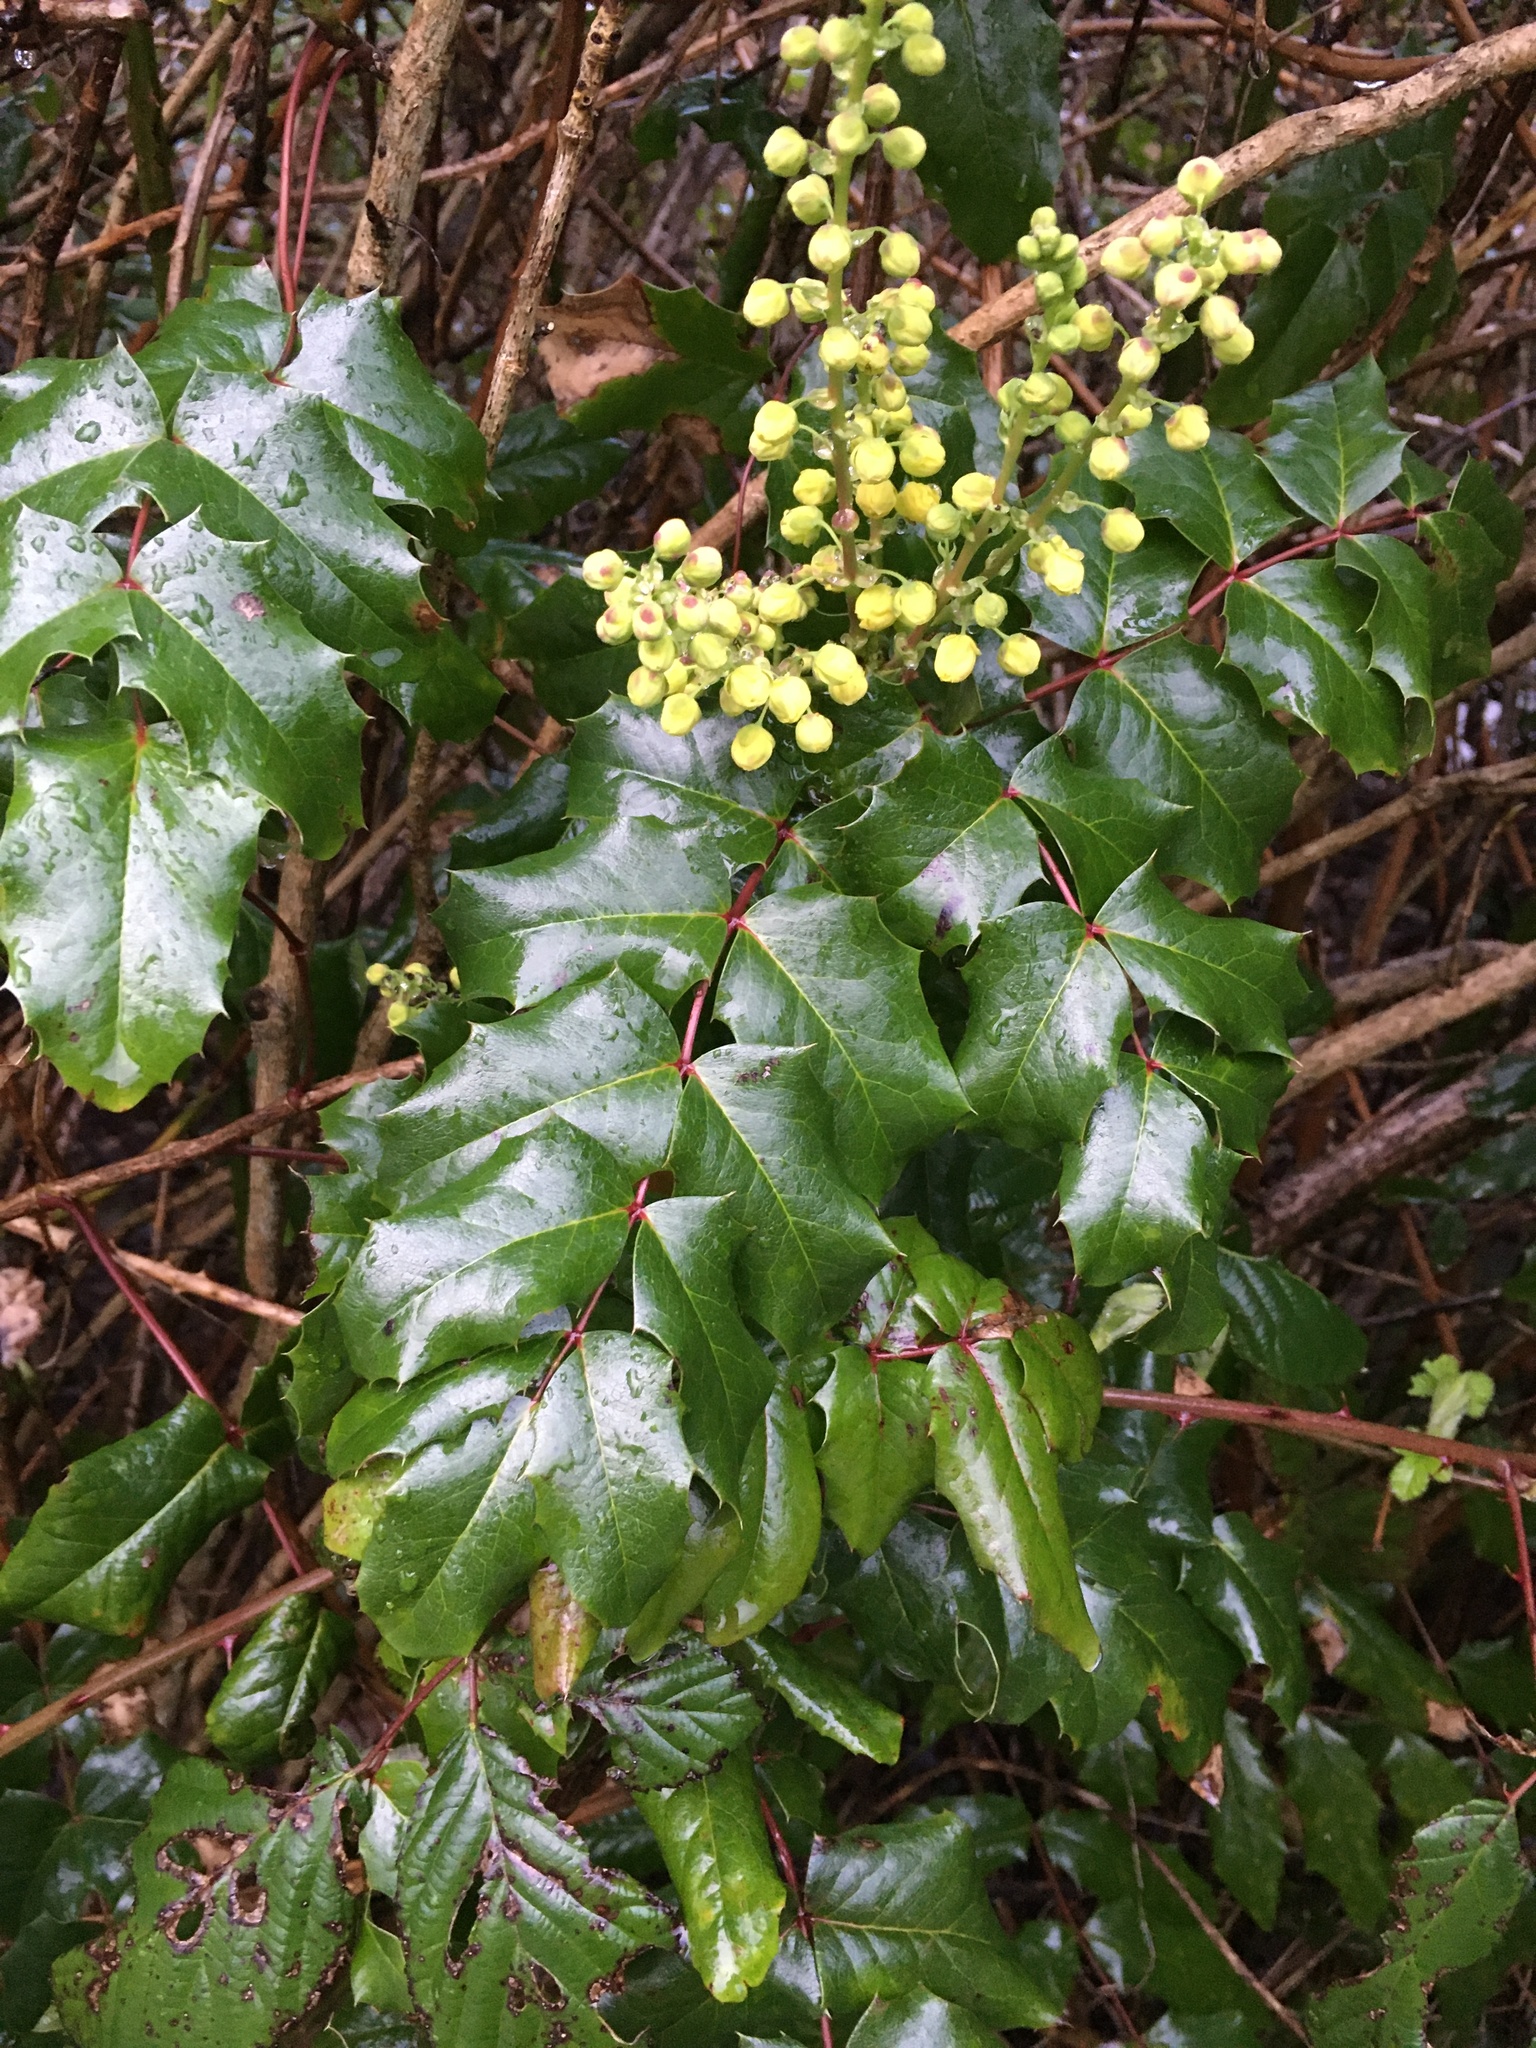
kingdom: Plantae
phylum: Tracheophyta
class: Magnoliopsida
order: Ranunculales
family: Berberidaceae
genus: Mahonia
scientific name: Mahonia aquifolium
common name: Oregon-grape
